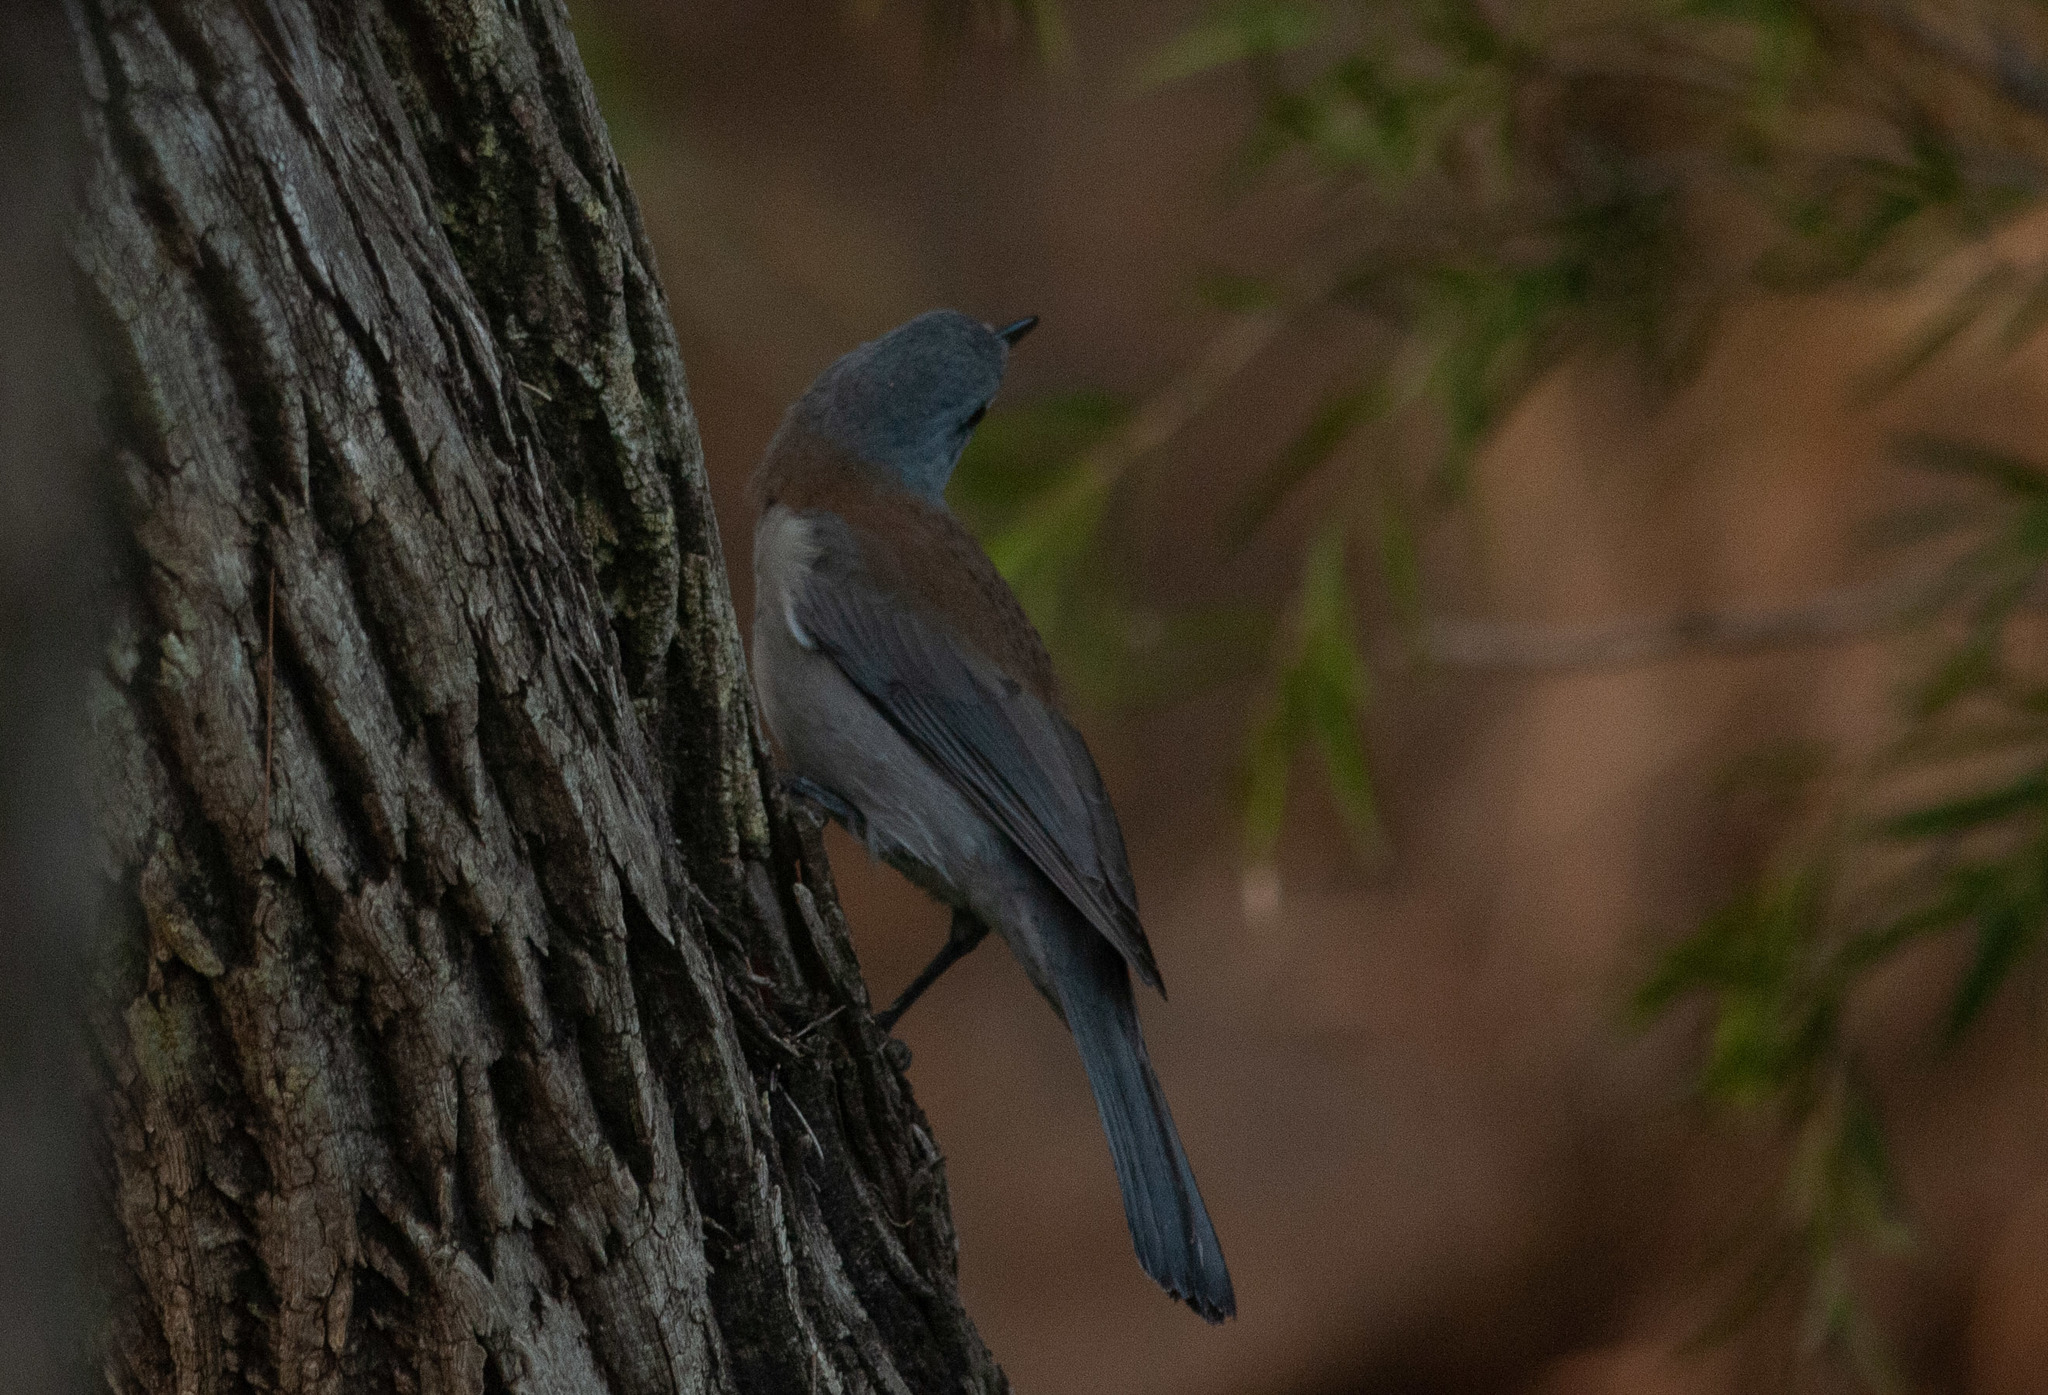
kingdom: Animalia
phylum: Chordata
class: Aves
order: Passeriformes
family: Pachycephalidae
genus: Colluricincla
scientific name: Colluricincla harmonica
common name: Grey shrikethrush
